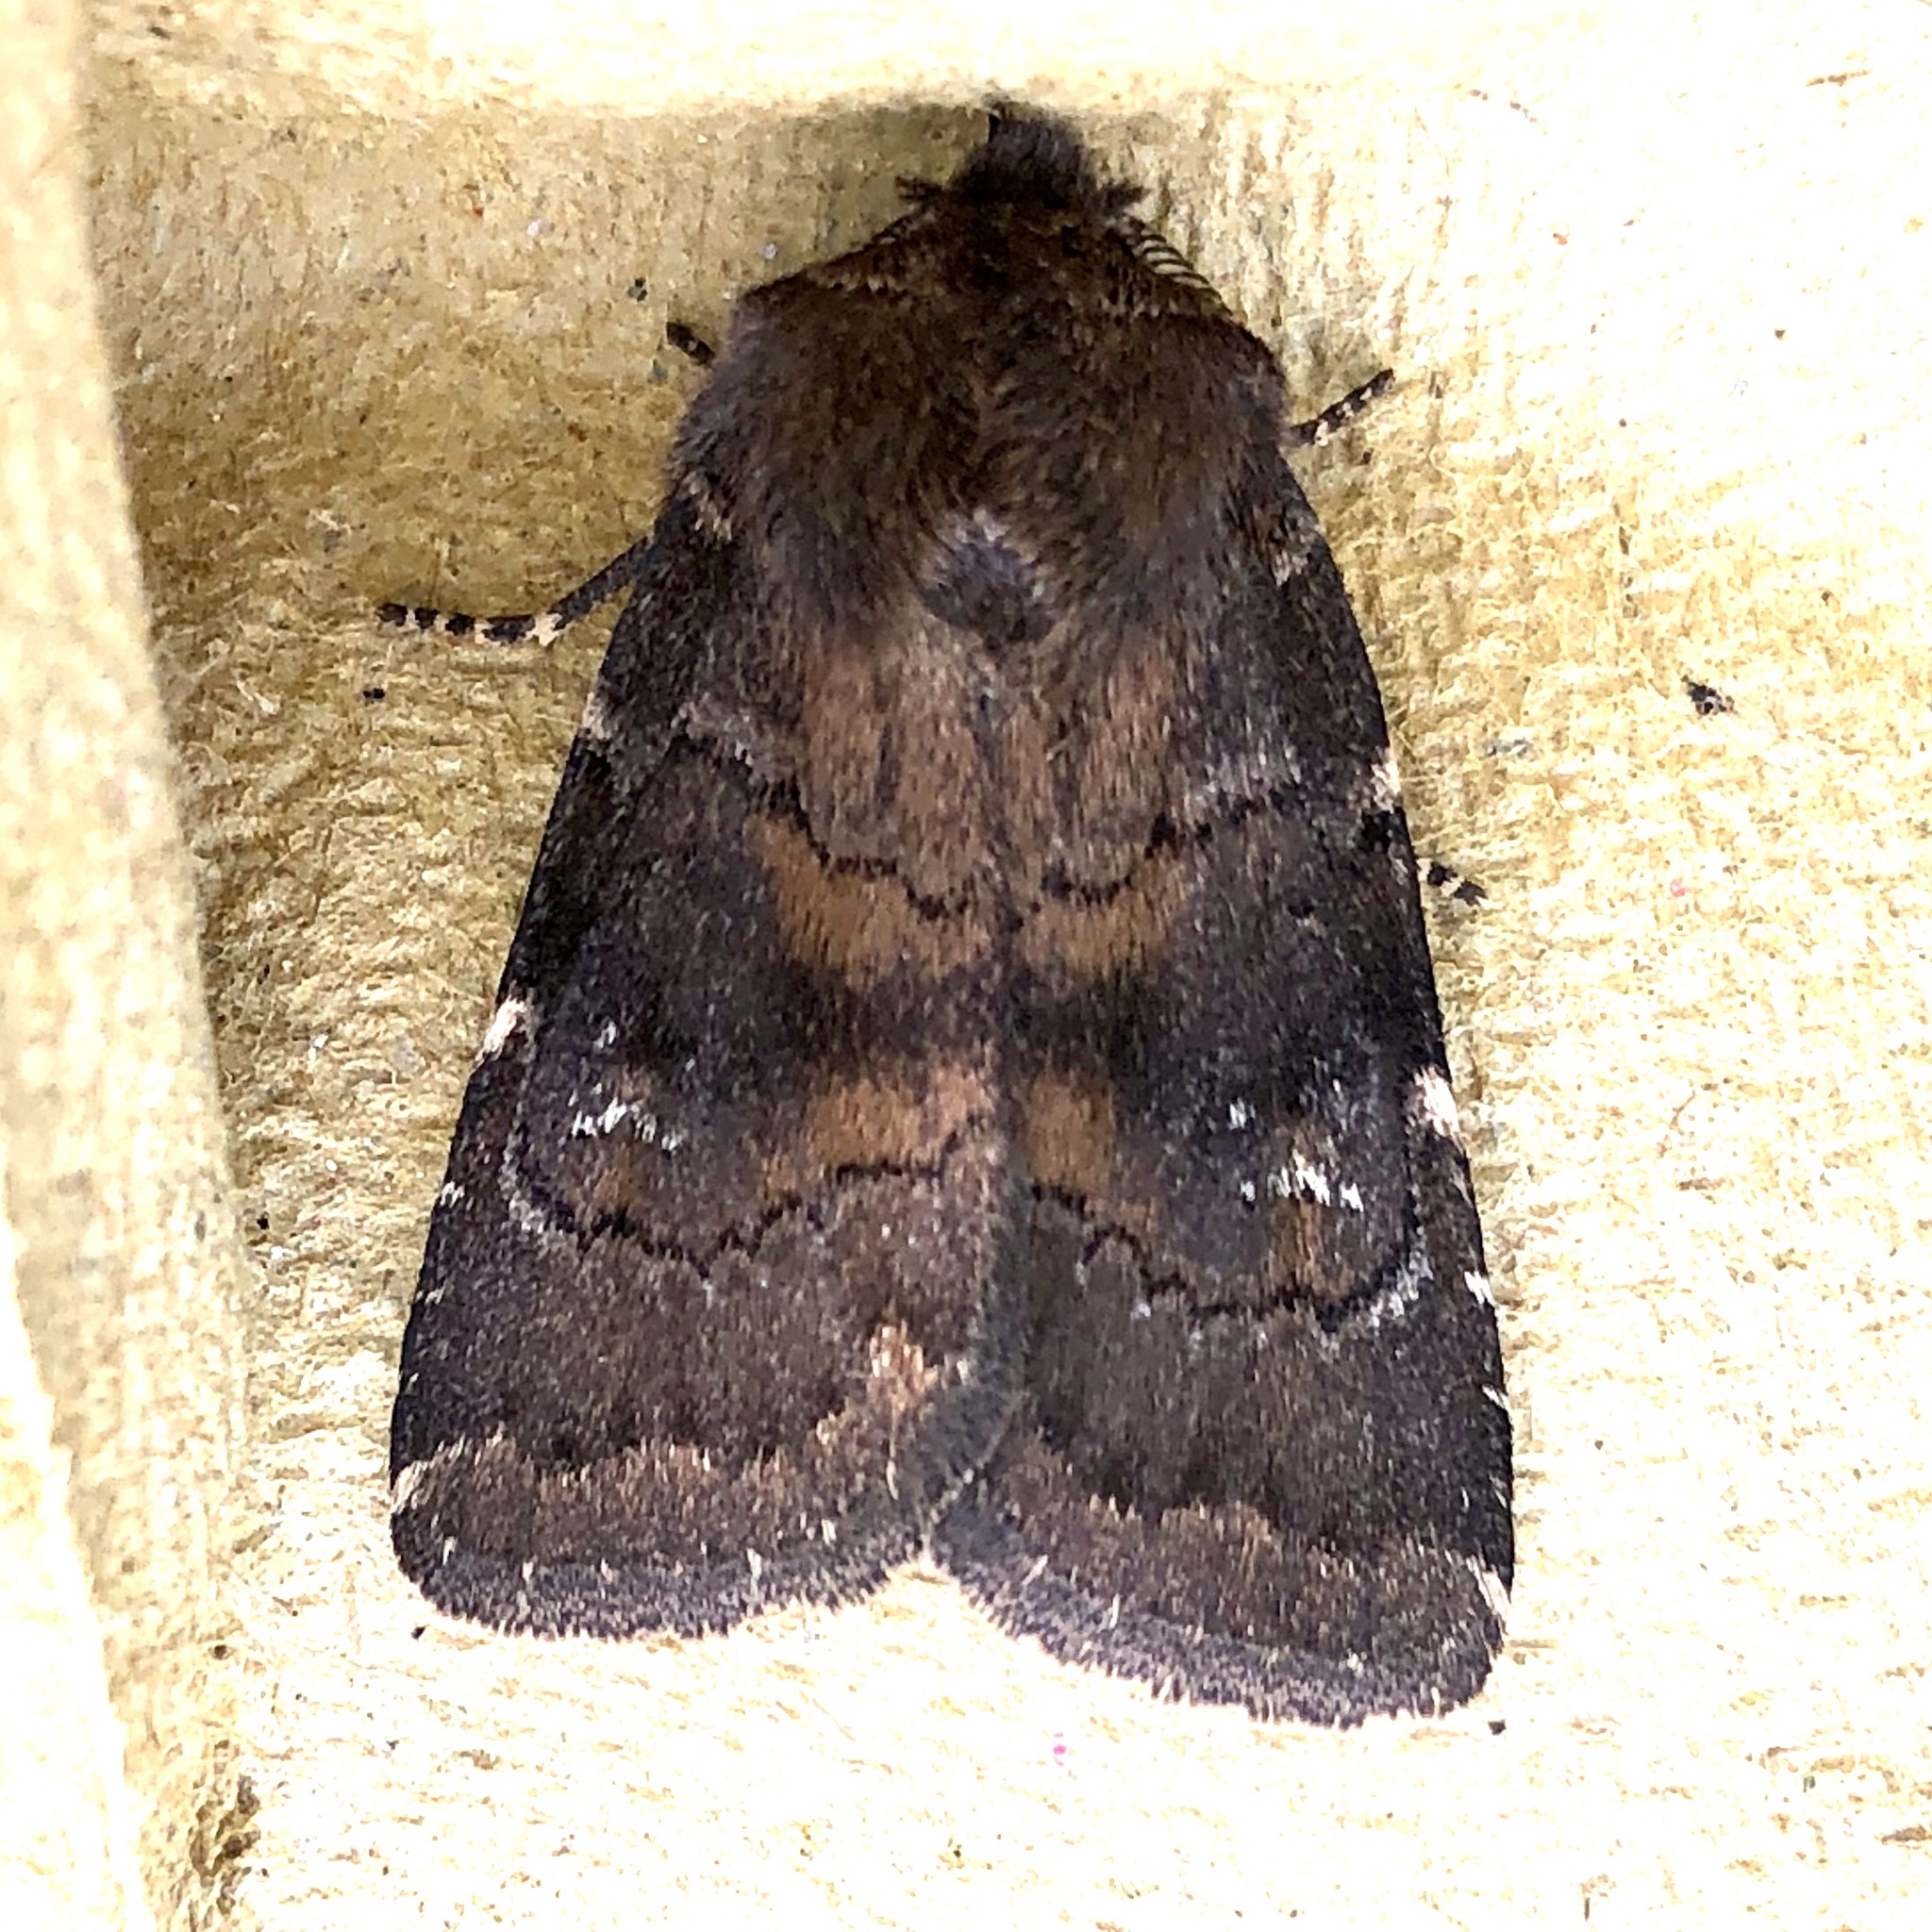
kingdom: Animalia
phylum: Arthropoda
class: Insecta
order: Lepidoptera
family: Noctuidae
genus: Charanyca
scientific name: Charanyca ferruginea
